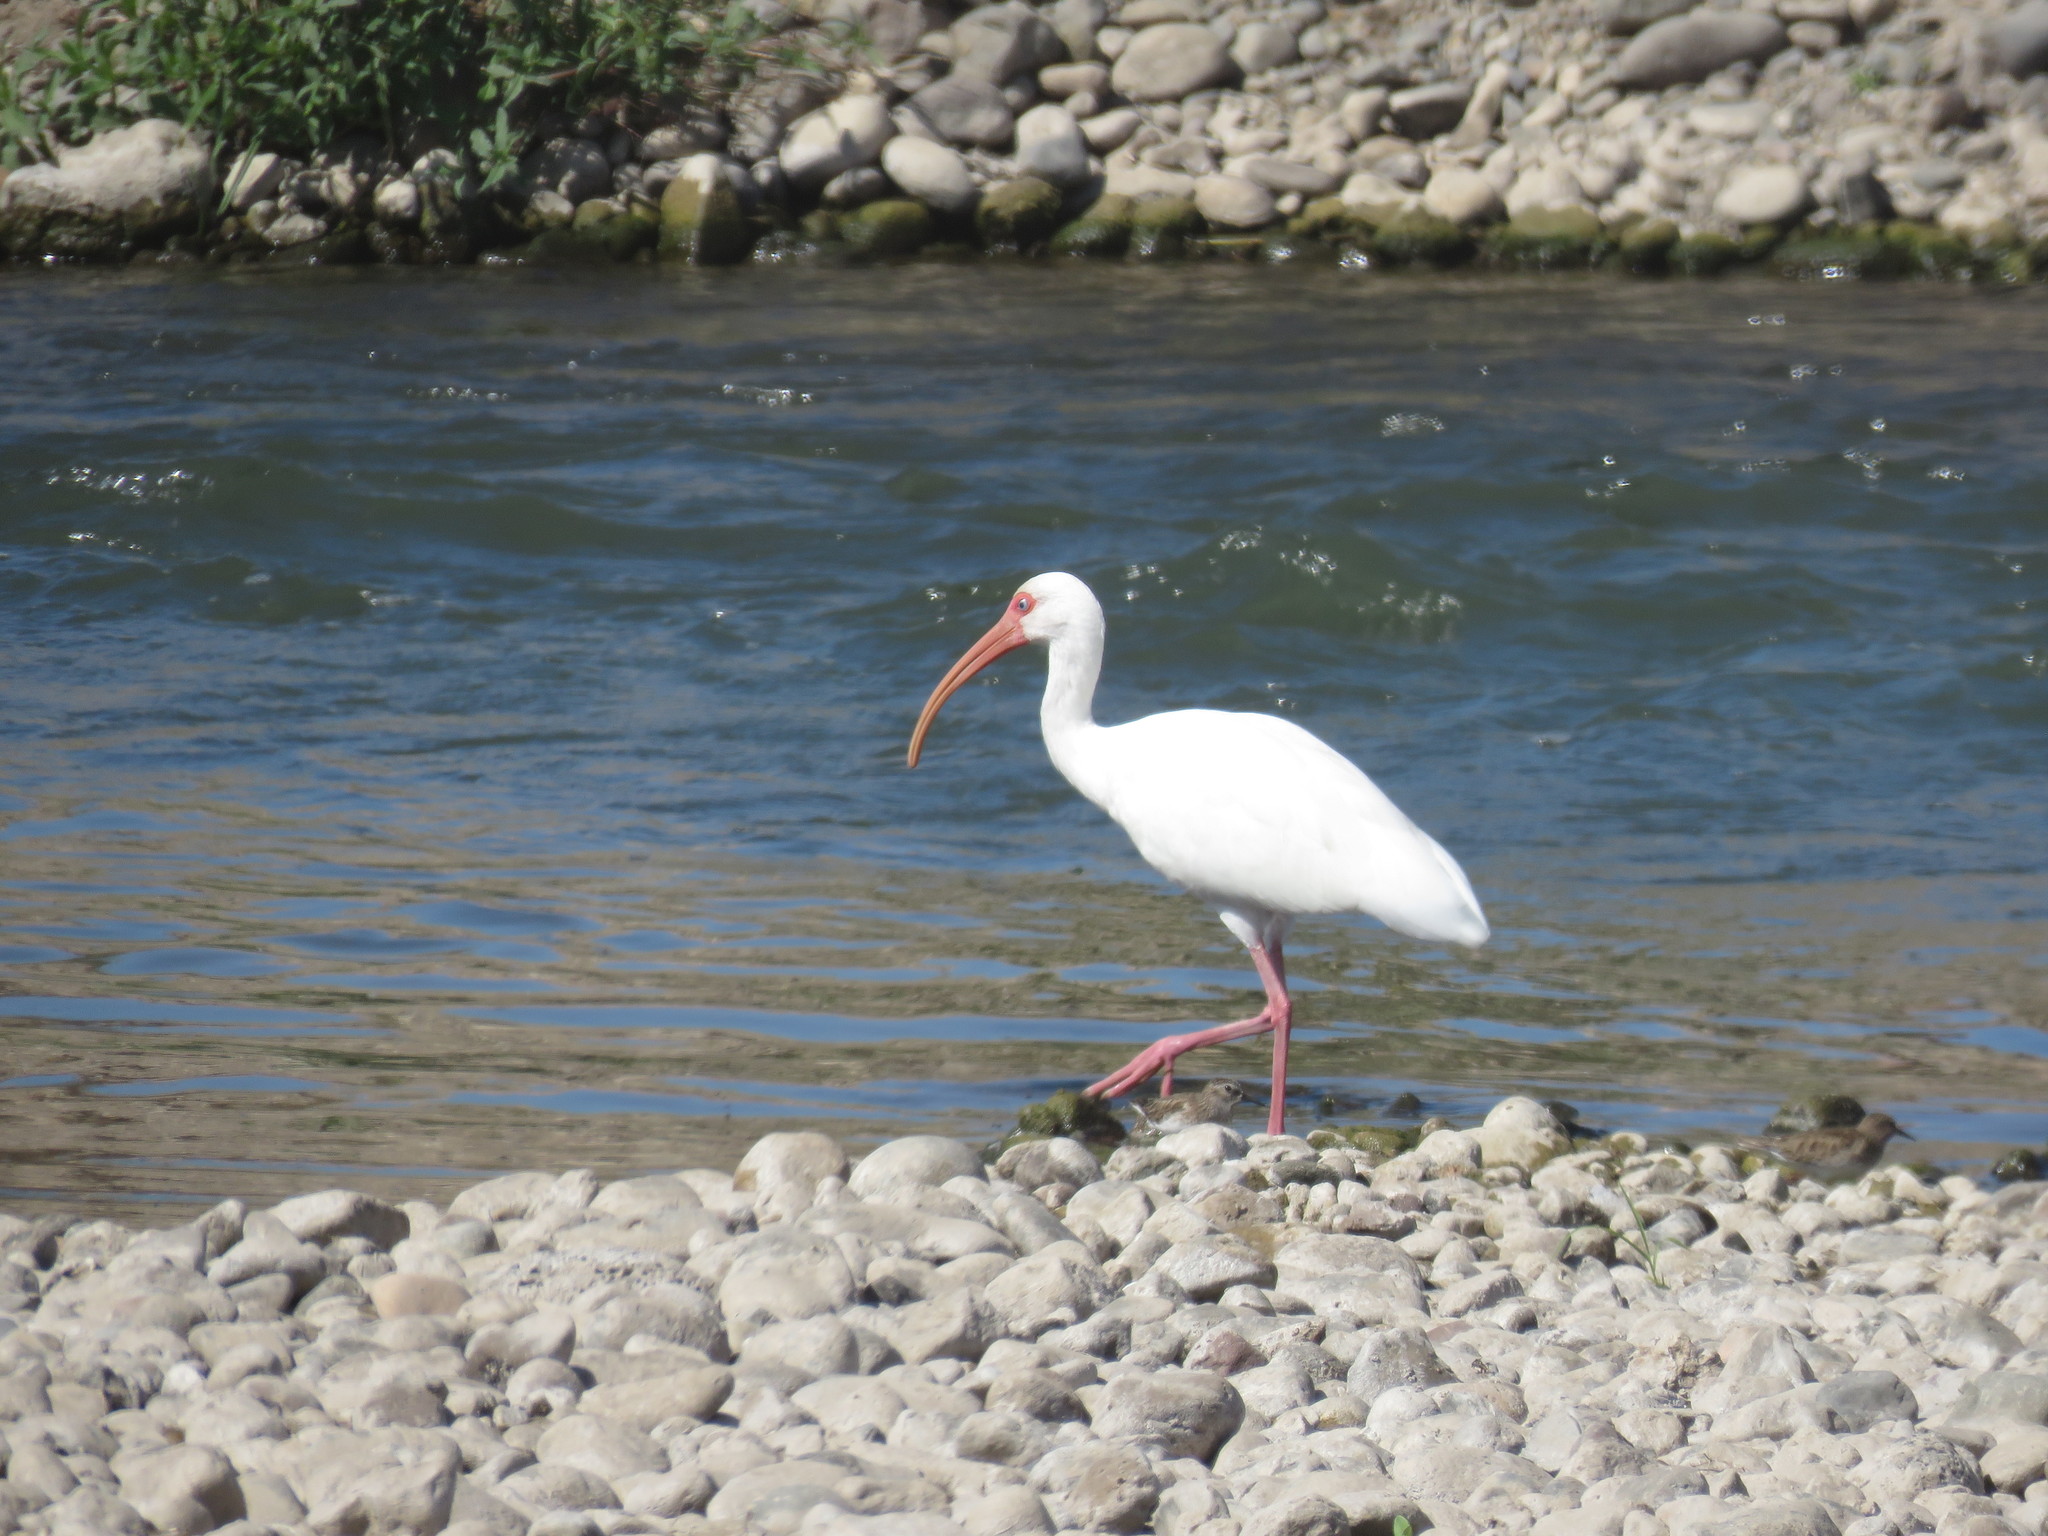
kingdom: Animalia
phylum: Chordata
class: Aves
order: Pelecaniformes
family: Threskiornithidae
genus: Eudocimus
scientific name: Eudocimus albus
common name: White ibis
